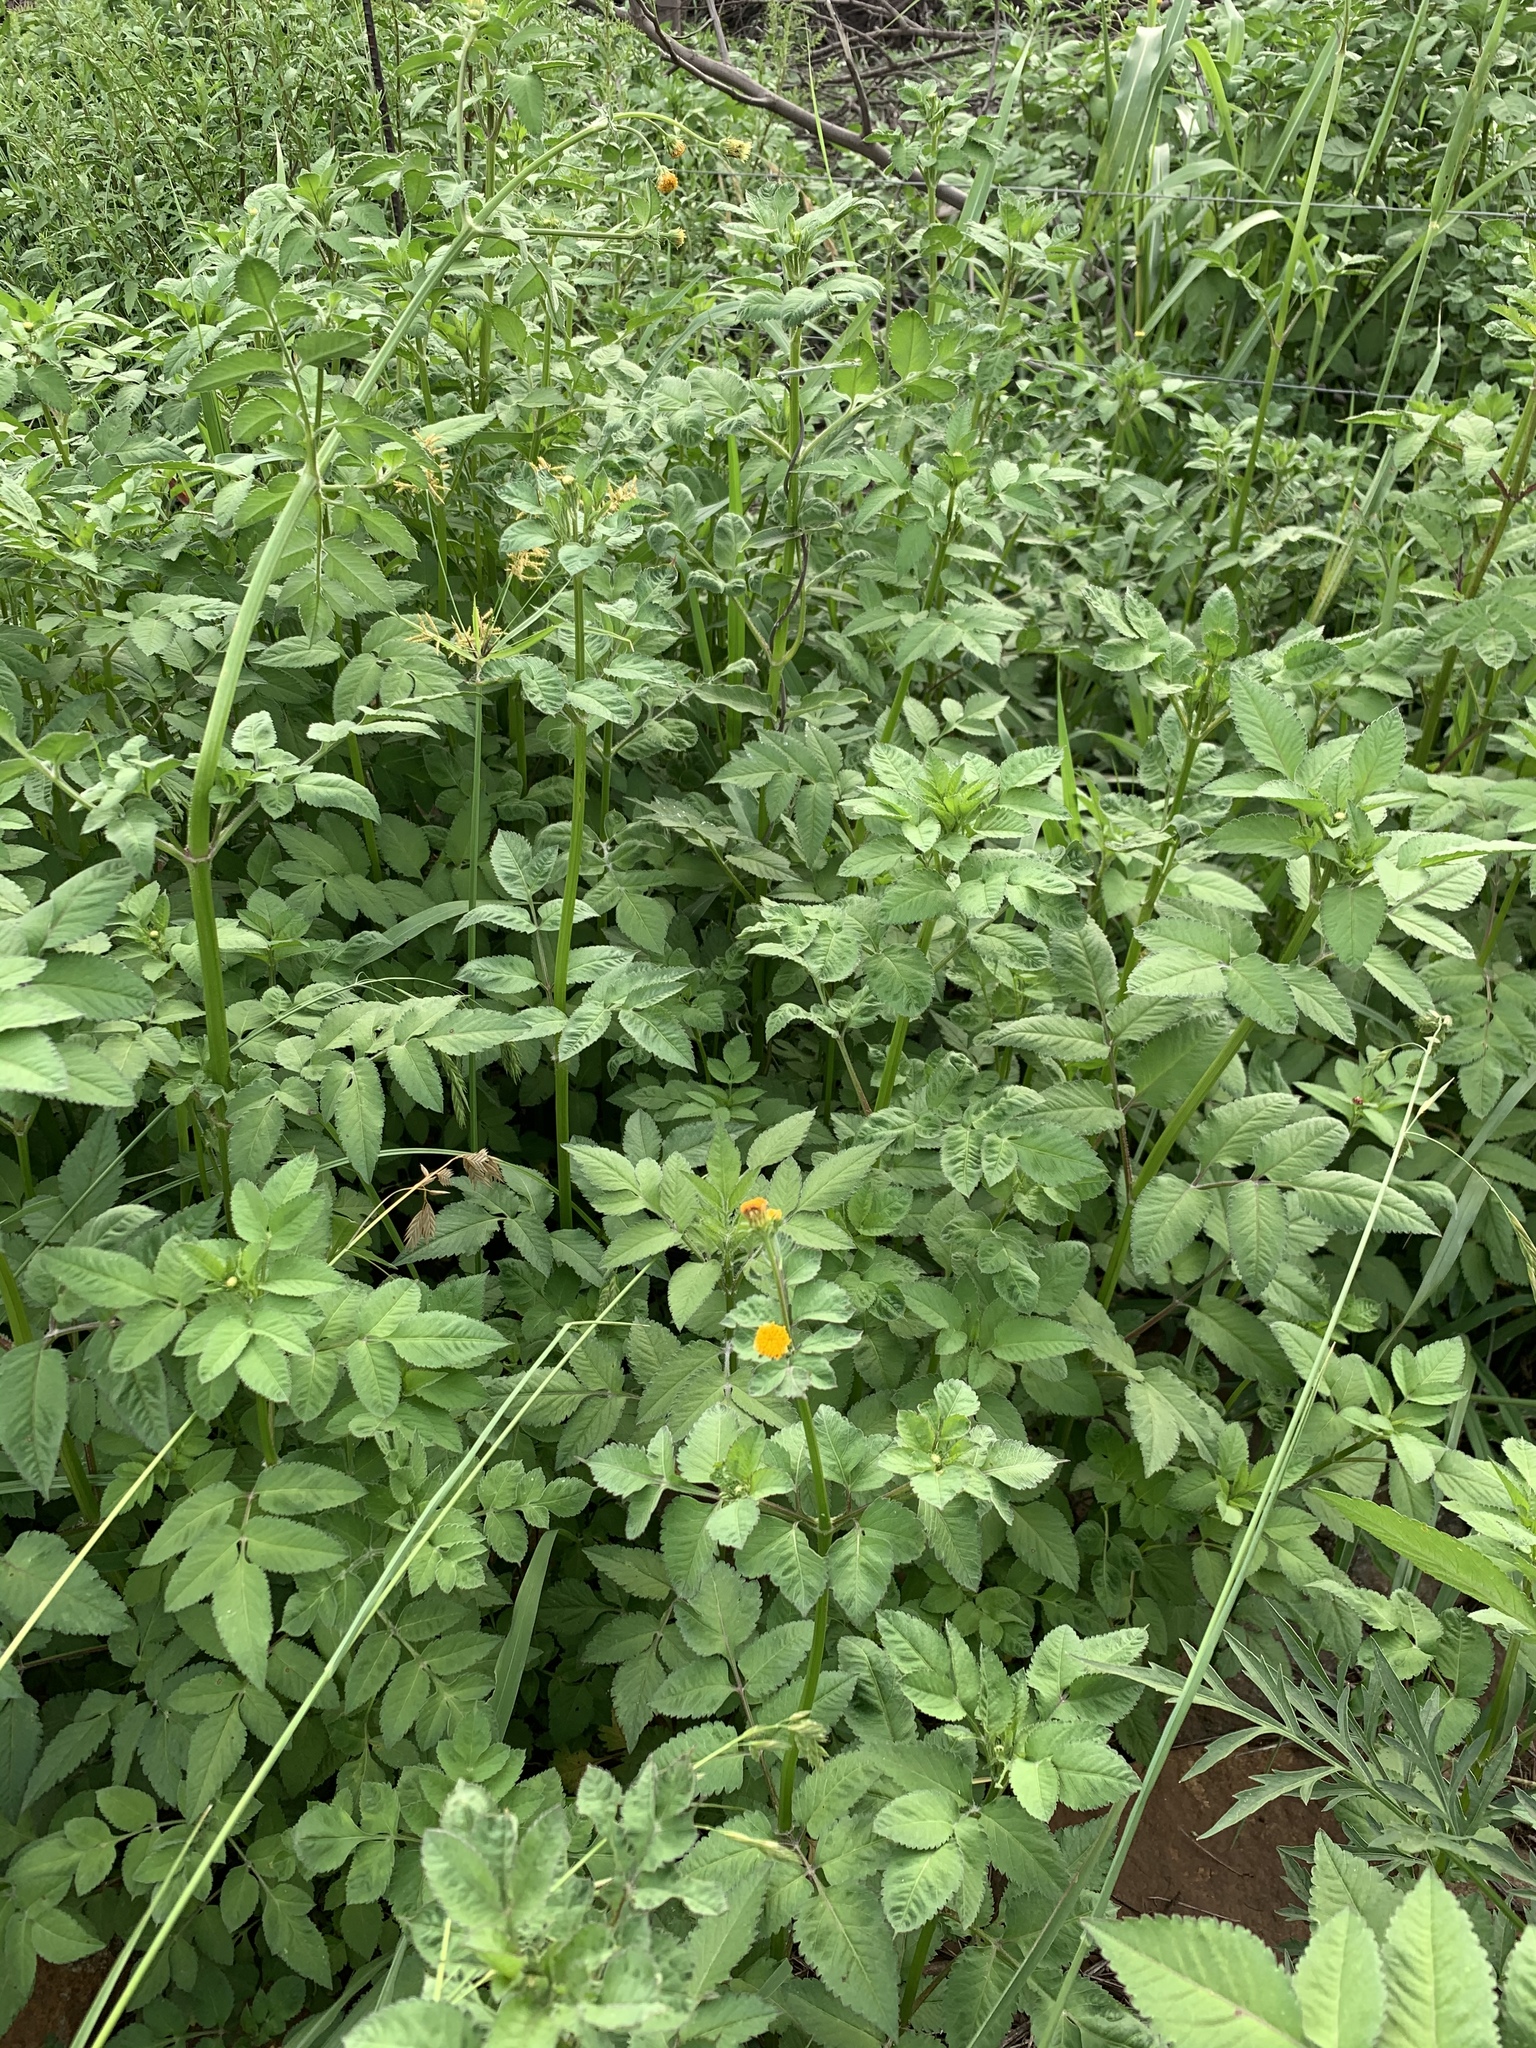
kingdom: Plantae
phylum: Tracheophyta
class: Magnoliopsida
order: Asterales
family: Asteraceae
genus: Bidens
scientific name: Bidens pilosa
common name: Black-jack
